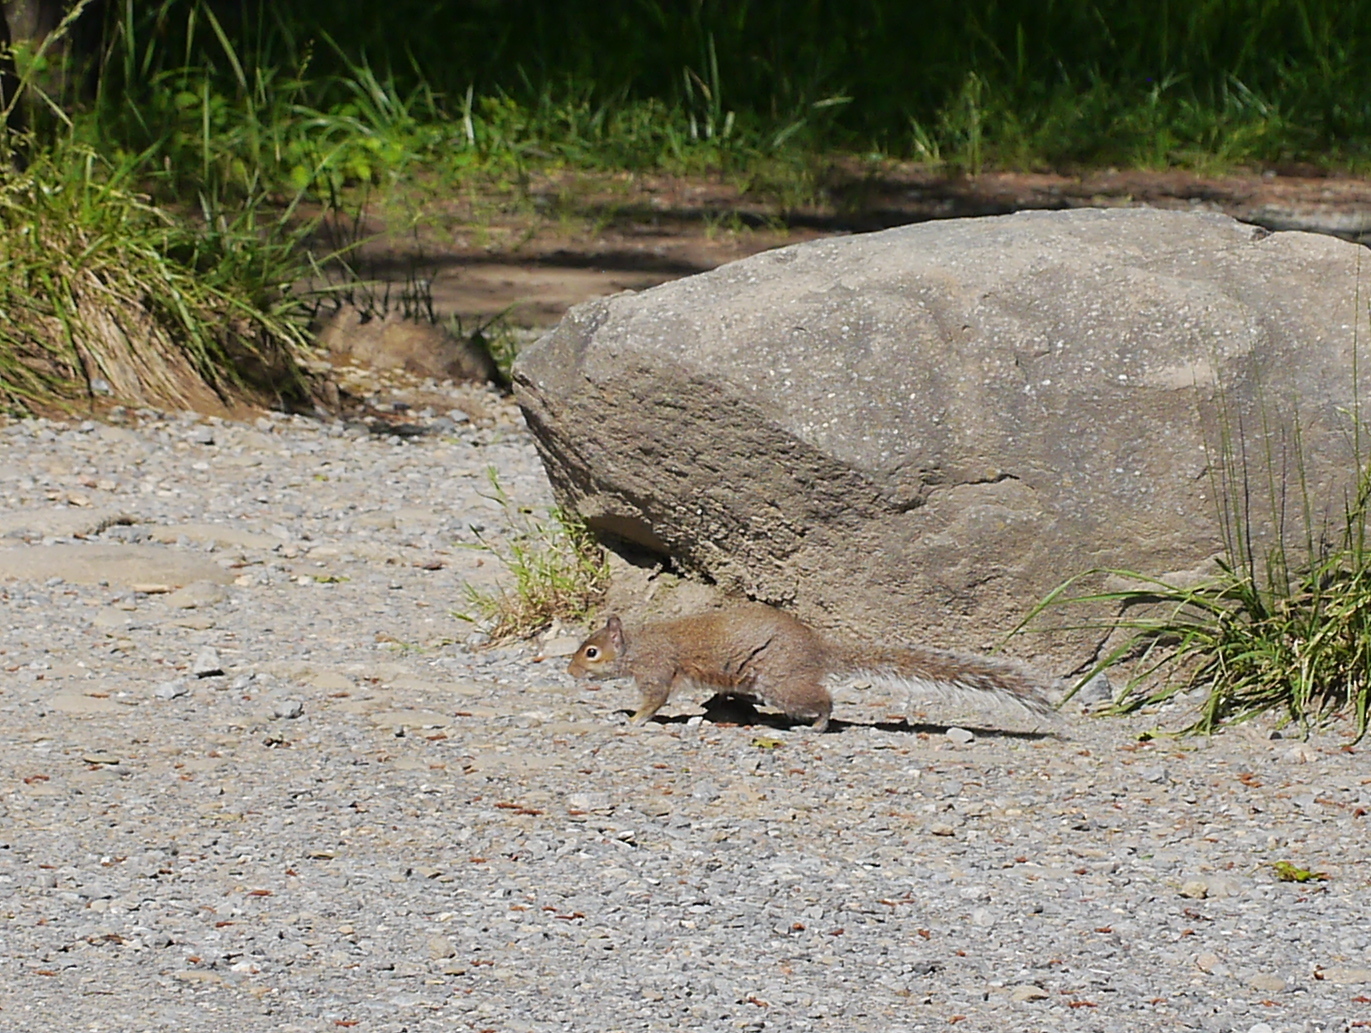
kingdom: Animalia
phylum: Chordata
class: Mammalia
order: Rodentia
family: Sciuridae
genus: Sciurus
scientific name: Sciurus carolinensis
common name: Eastern gray squirrel
